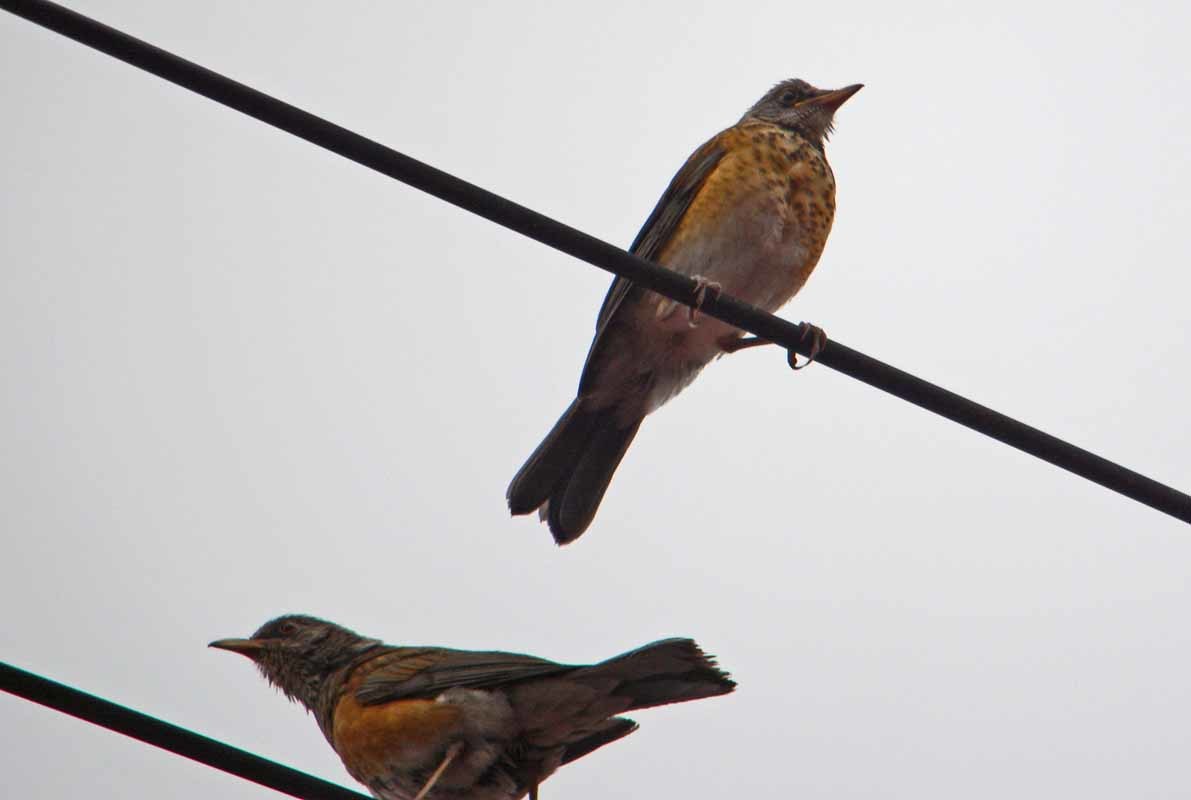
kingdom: Animalia
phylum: Chordata
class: Aves
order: Passeriformes
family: Turdidae
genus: Turdus
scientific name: Turdus rufopalliatus
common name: Rufous-backed robin
